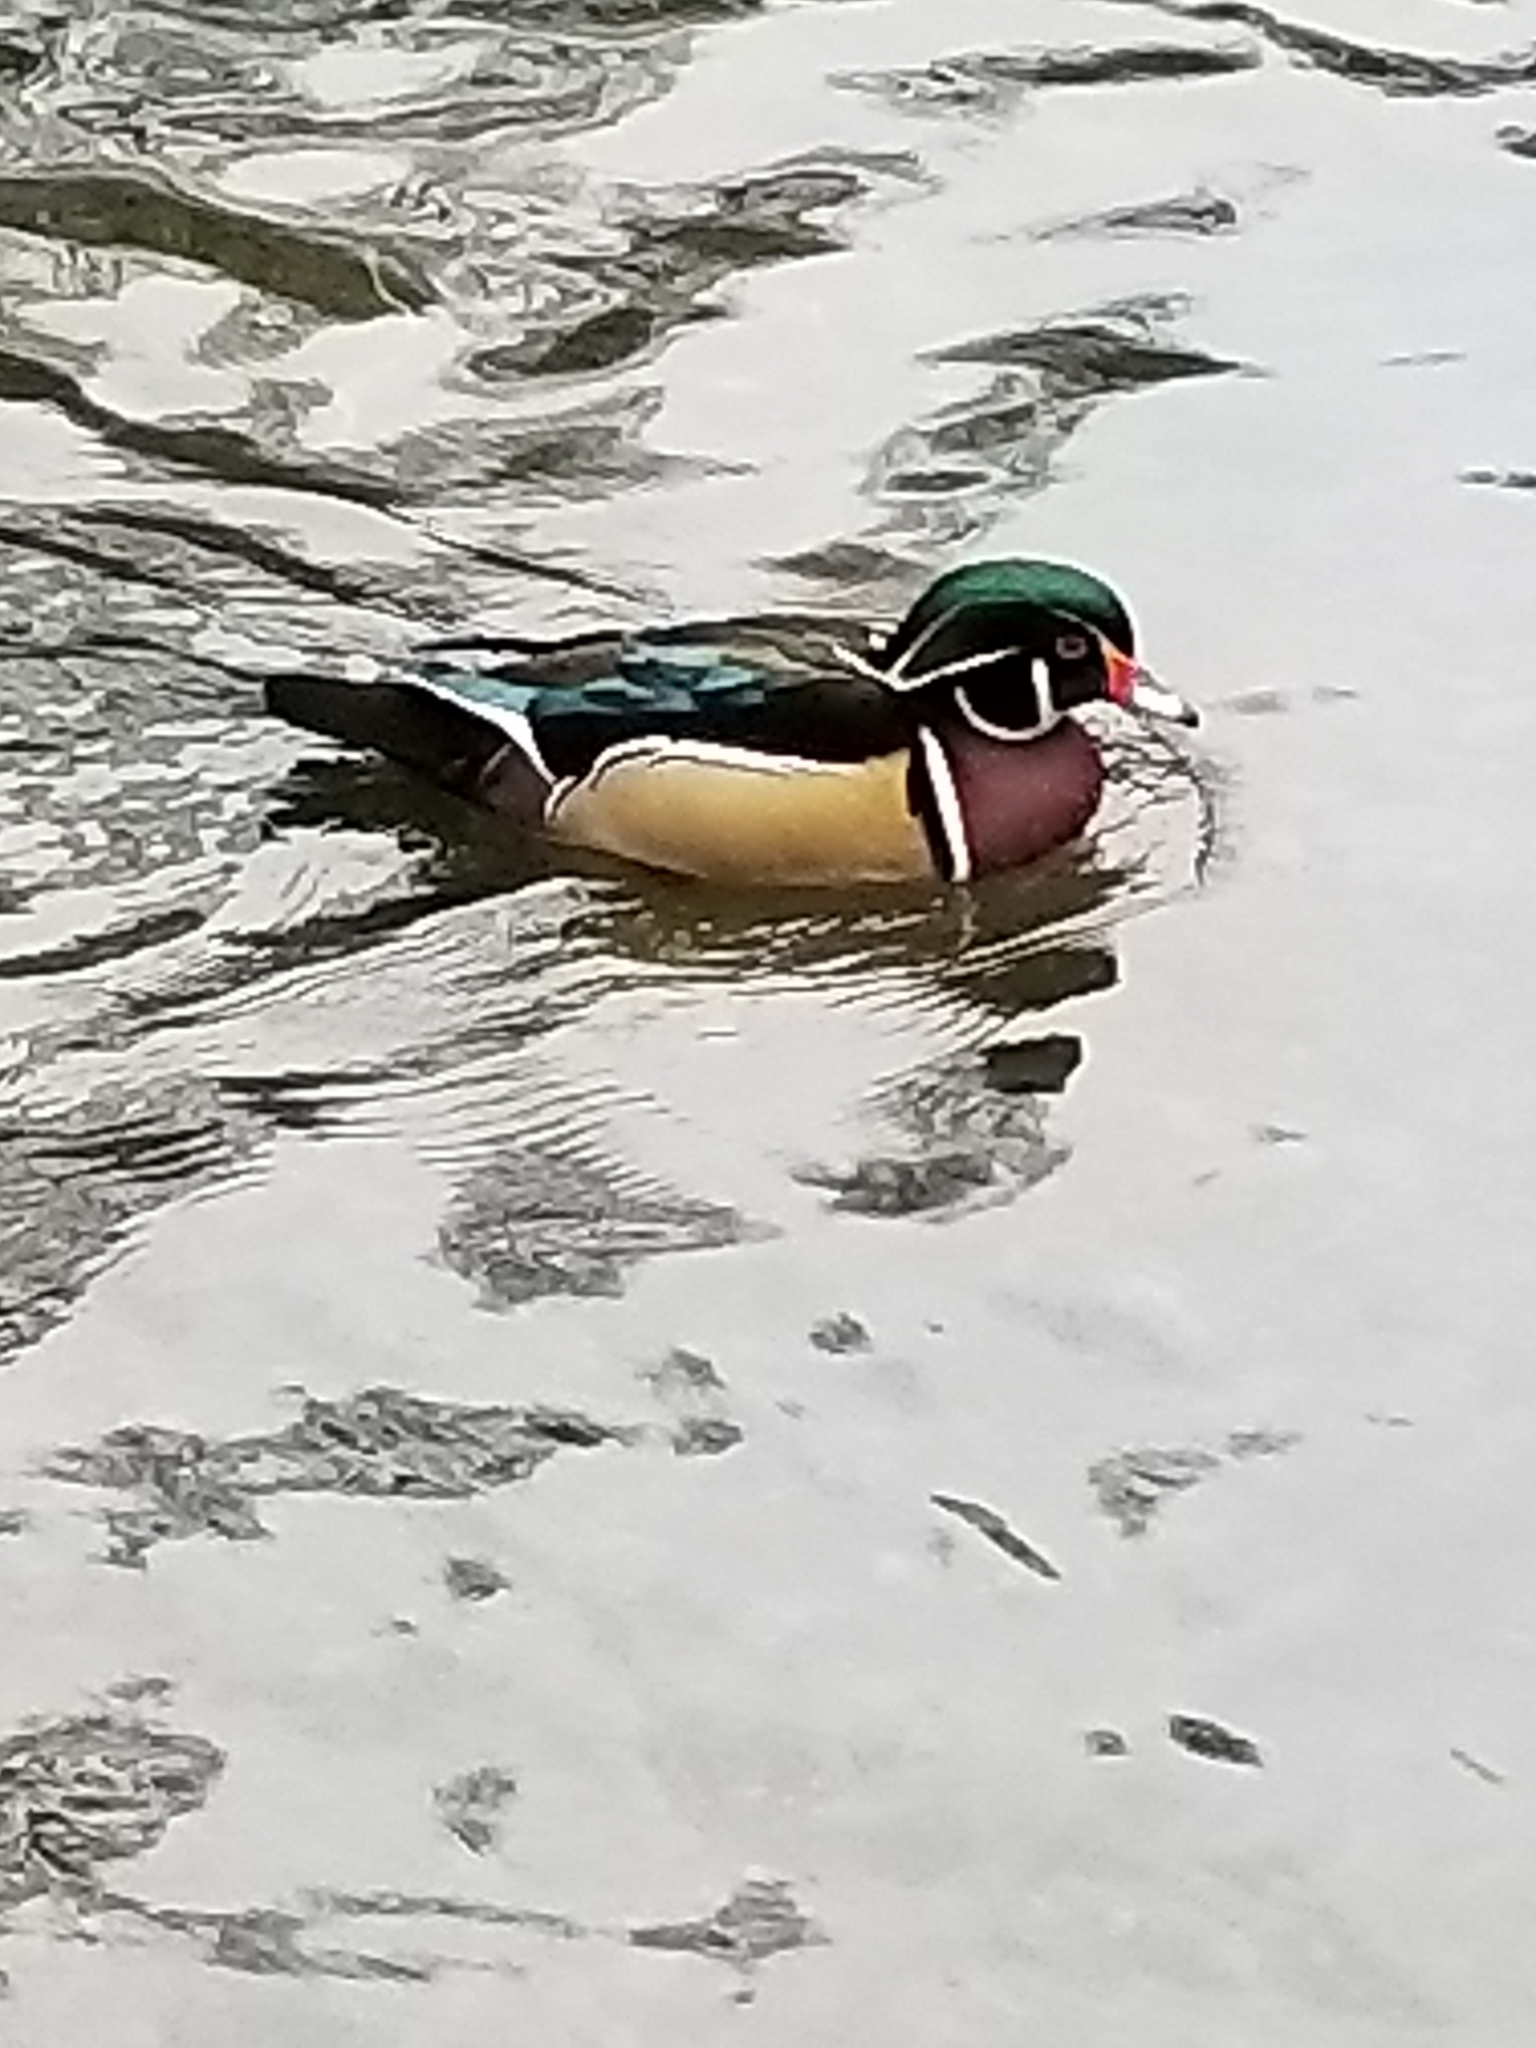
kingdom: Animalia
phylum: Chordata
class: Aves
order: Anseriformes
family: Anatidae
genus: Aix
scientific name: Aix sponsa
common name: Wood duck
